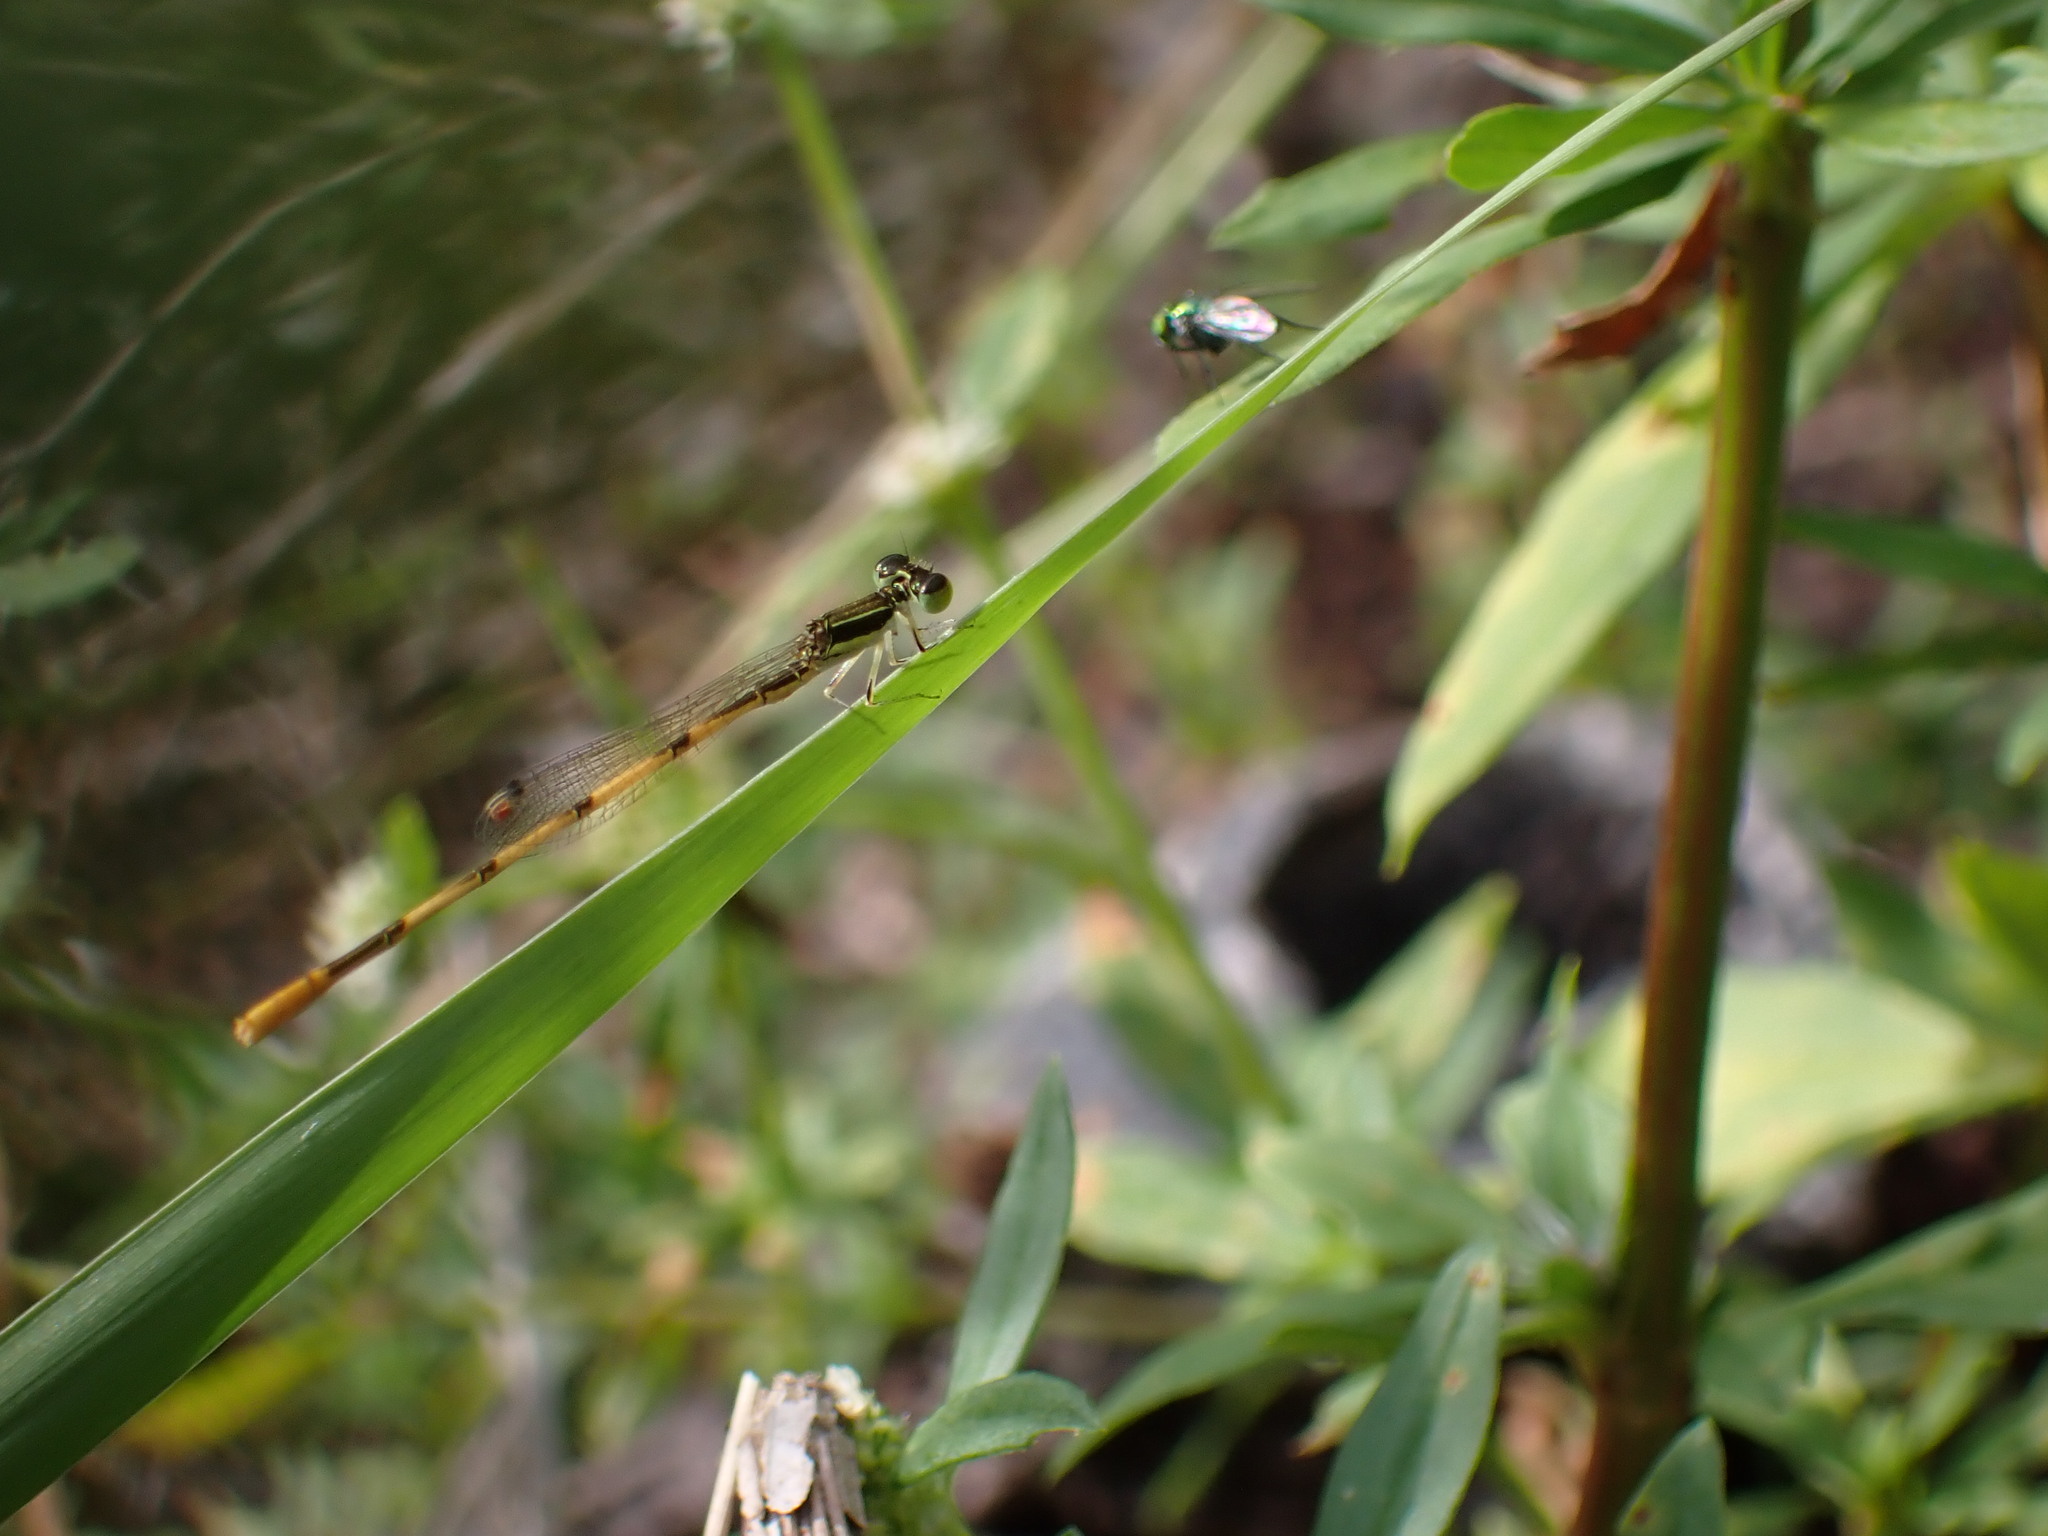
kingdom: Animalia
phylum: Arthropoda
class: Insecta
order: Odonata
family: Coenagrionidae
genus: Ischnura
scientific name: Ischnura hastata
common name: Citrine forktail
